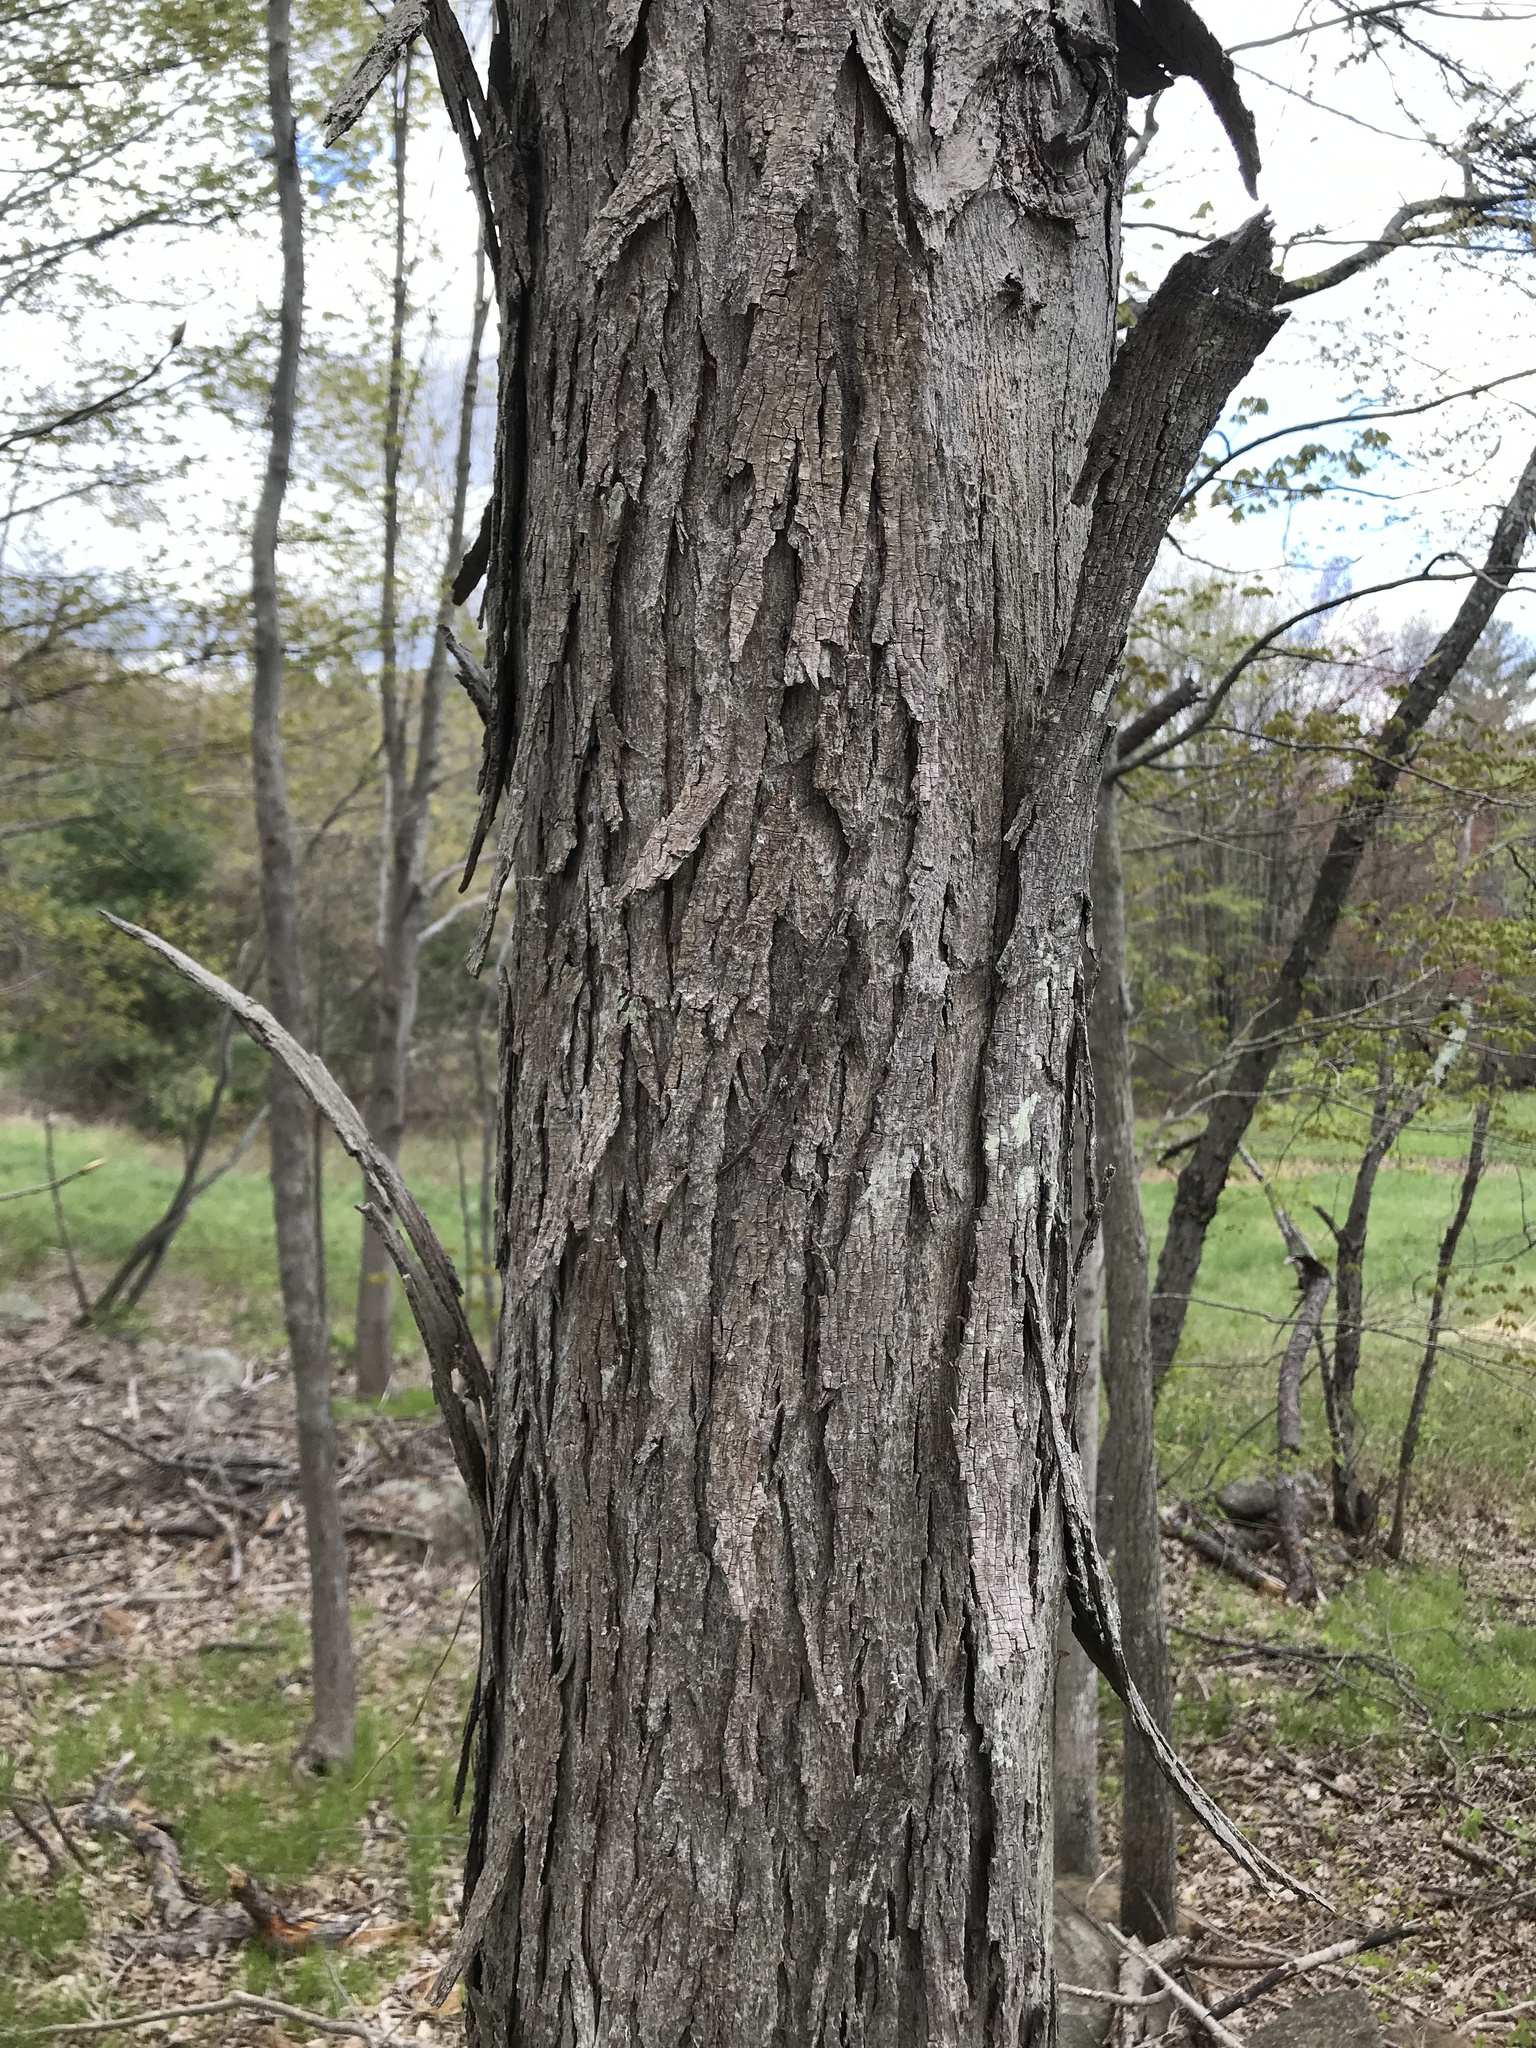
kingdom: Plantae
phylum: Tracheophyta
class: Magnoliopsida
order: Fagales
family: Juglandaceae
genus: Carya
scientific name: Carya ovata
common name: Shagbark hickory
